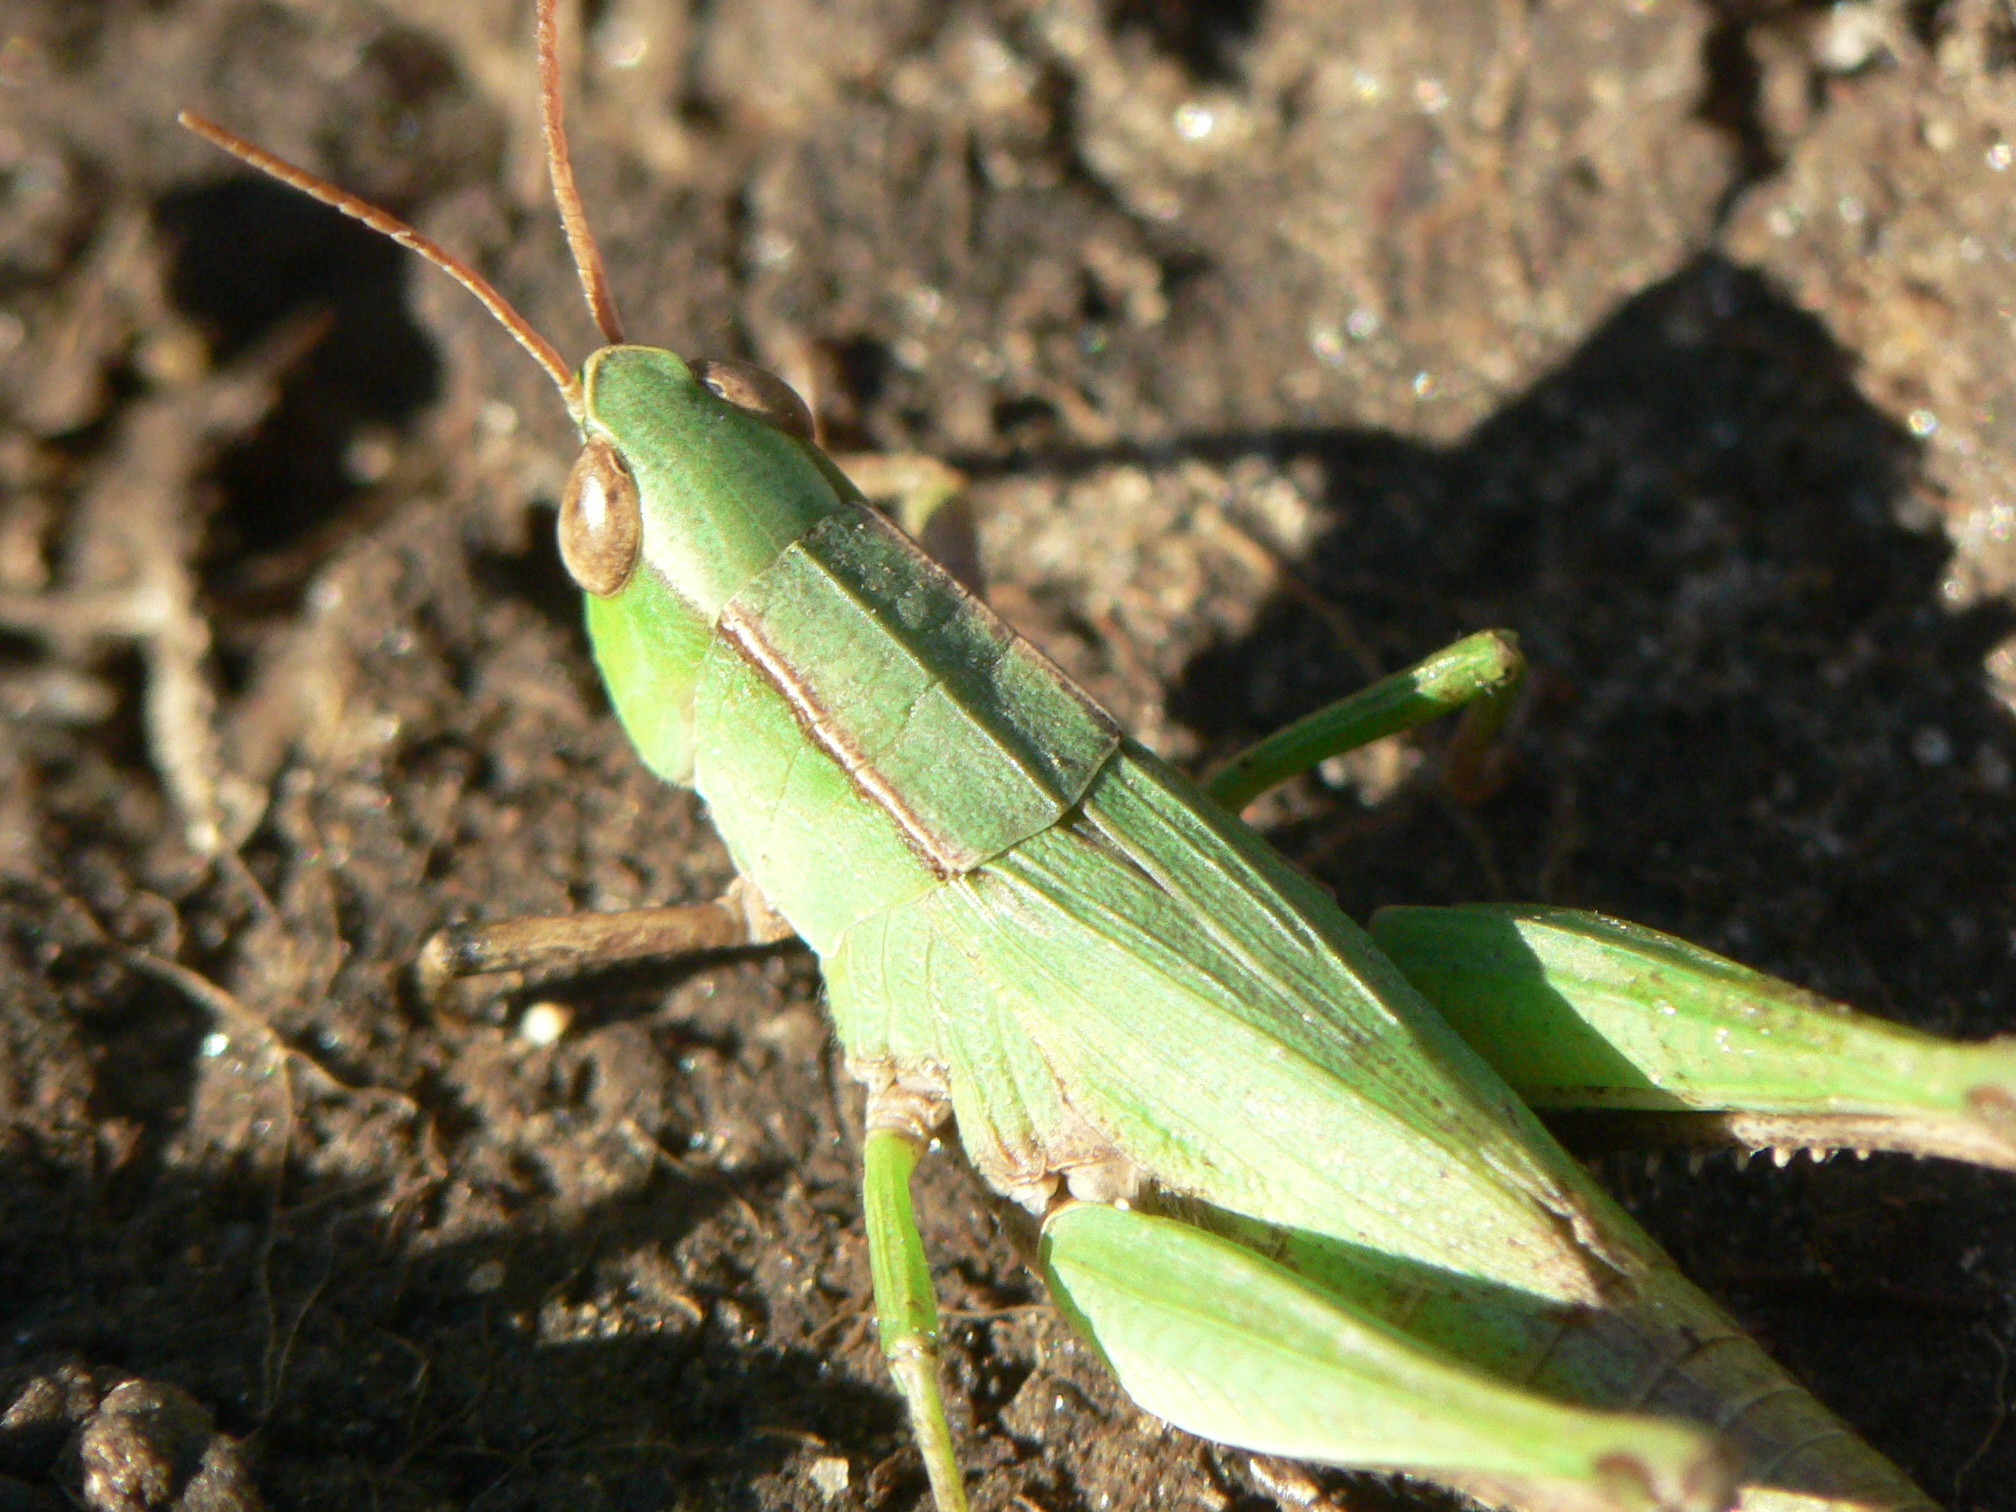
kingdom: Animalia
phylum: Arthropoda
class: Insecta
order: Orthoptera
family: Acrididae
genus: Dichromorpha
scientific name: Dichromorpha viridis
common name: Short-winged green grasshopper
